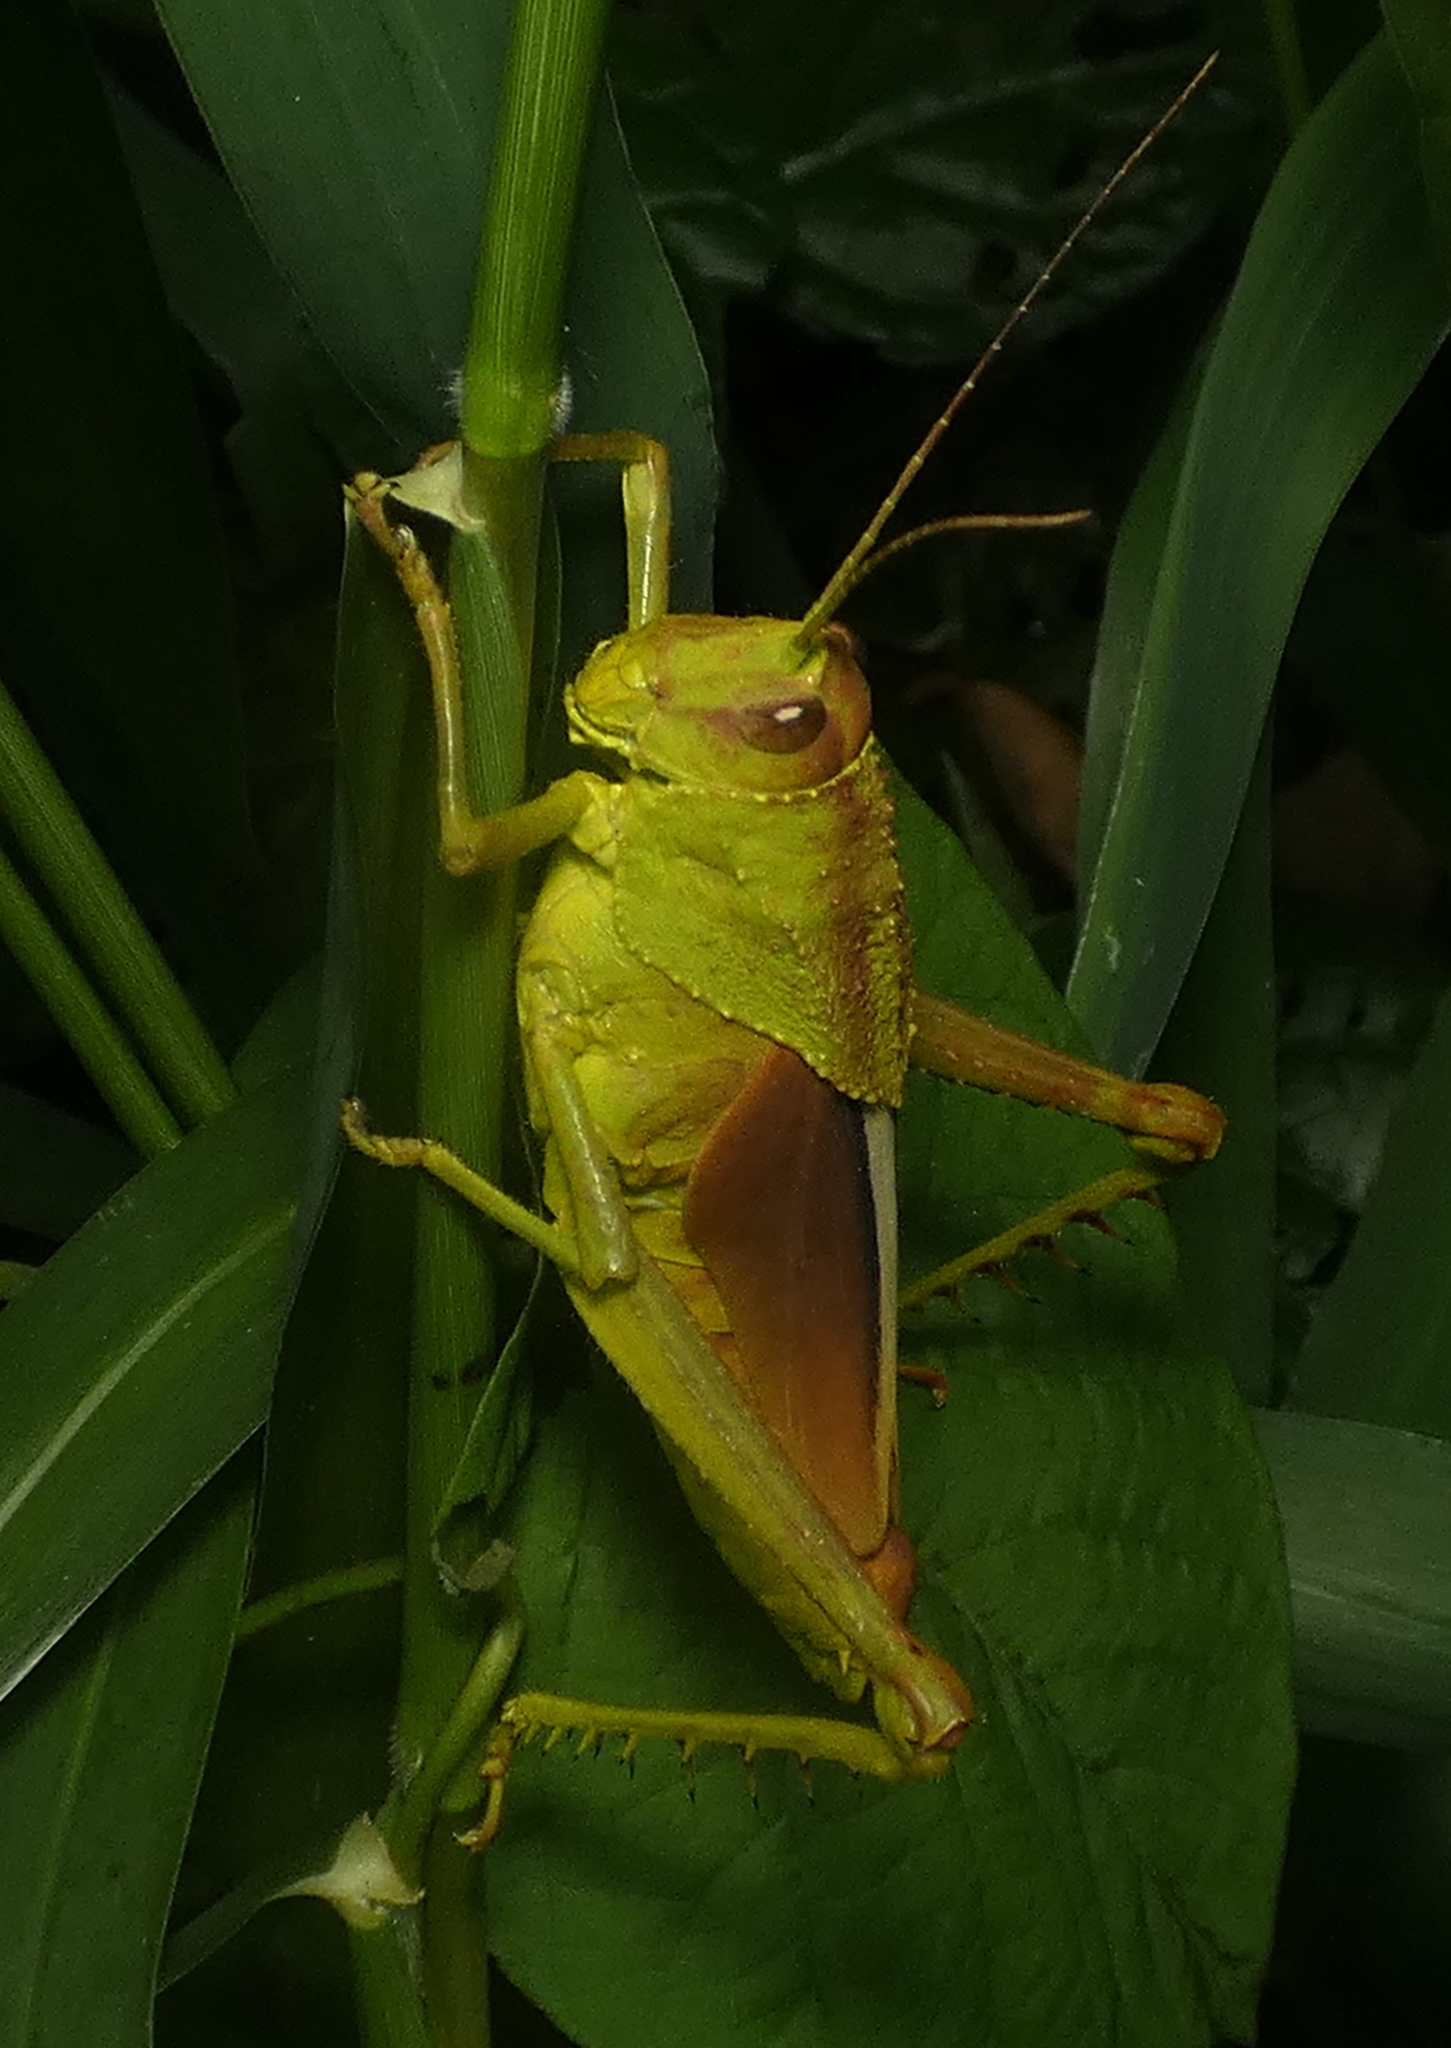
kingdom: Animalia
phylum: Arthropoda
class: Insecta
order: Orthoptera
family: Romaleidae
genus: Agriacris
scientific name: Agriacris auripennis
